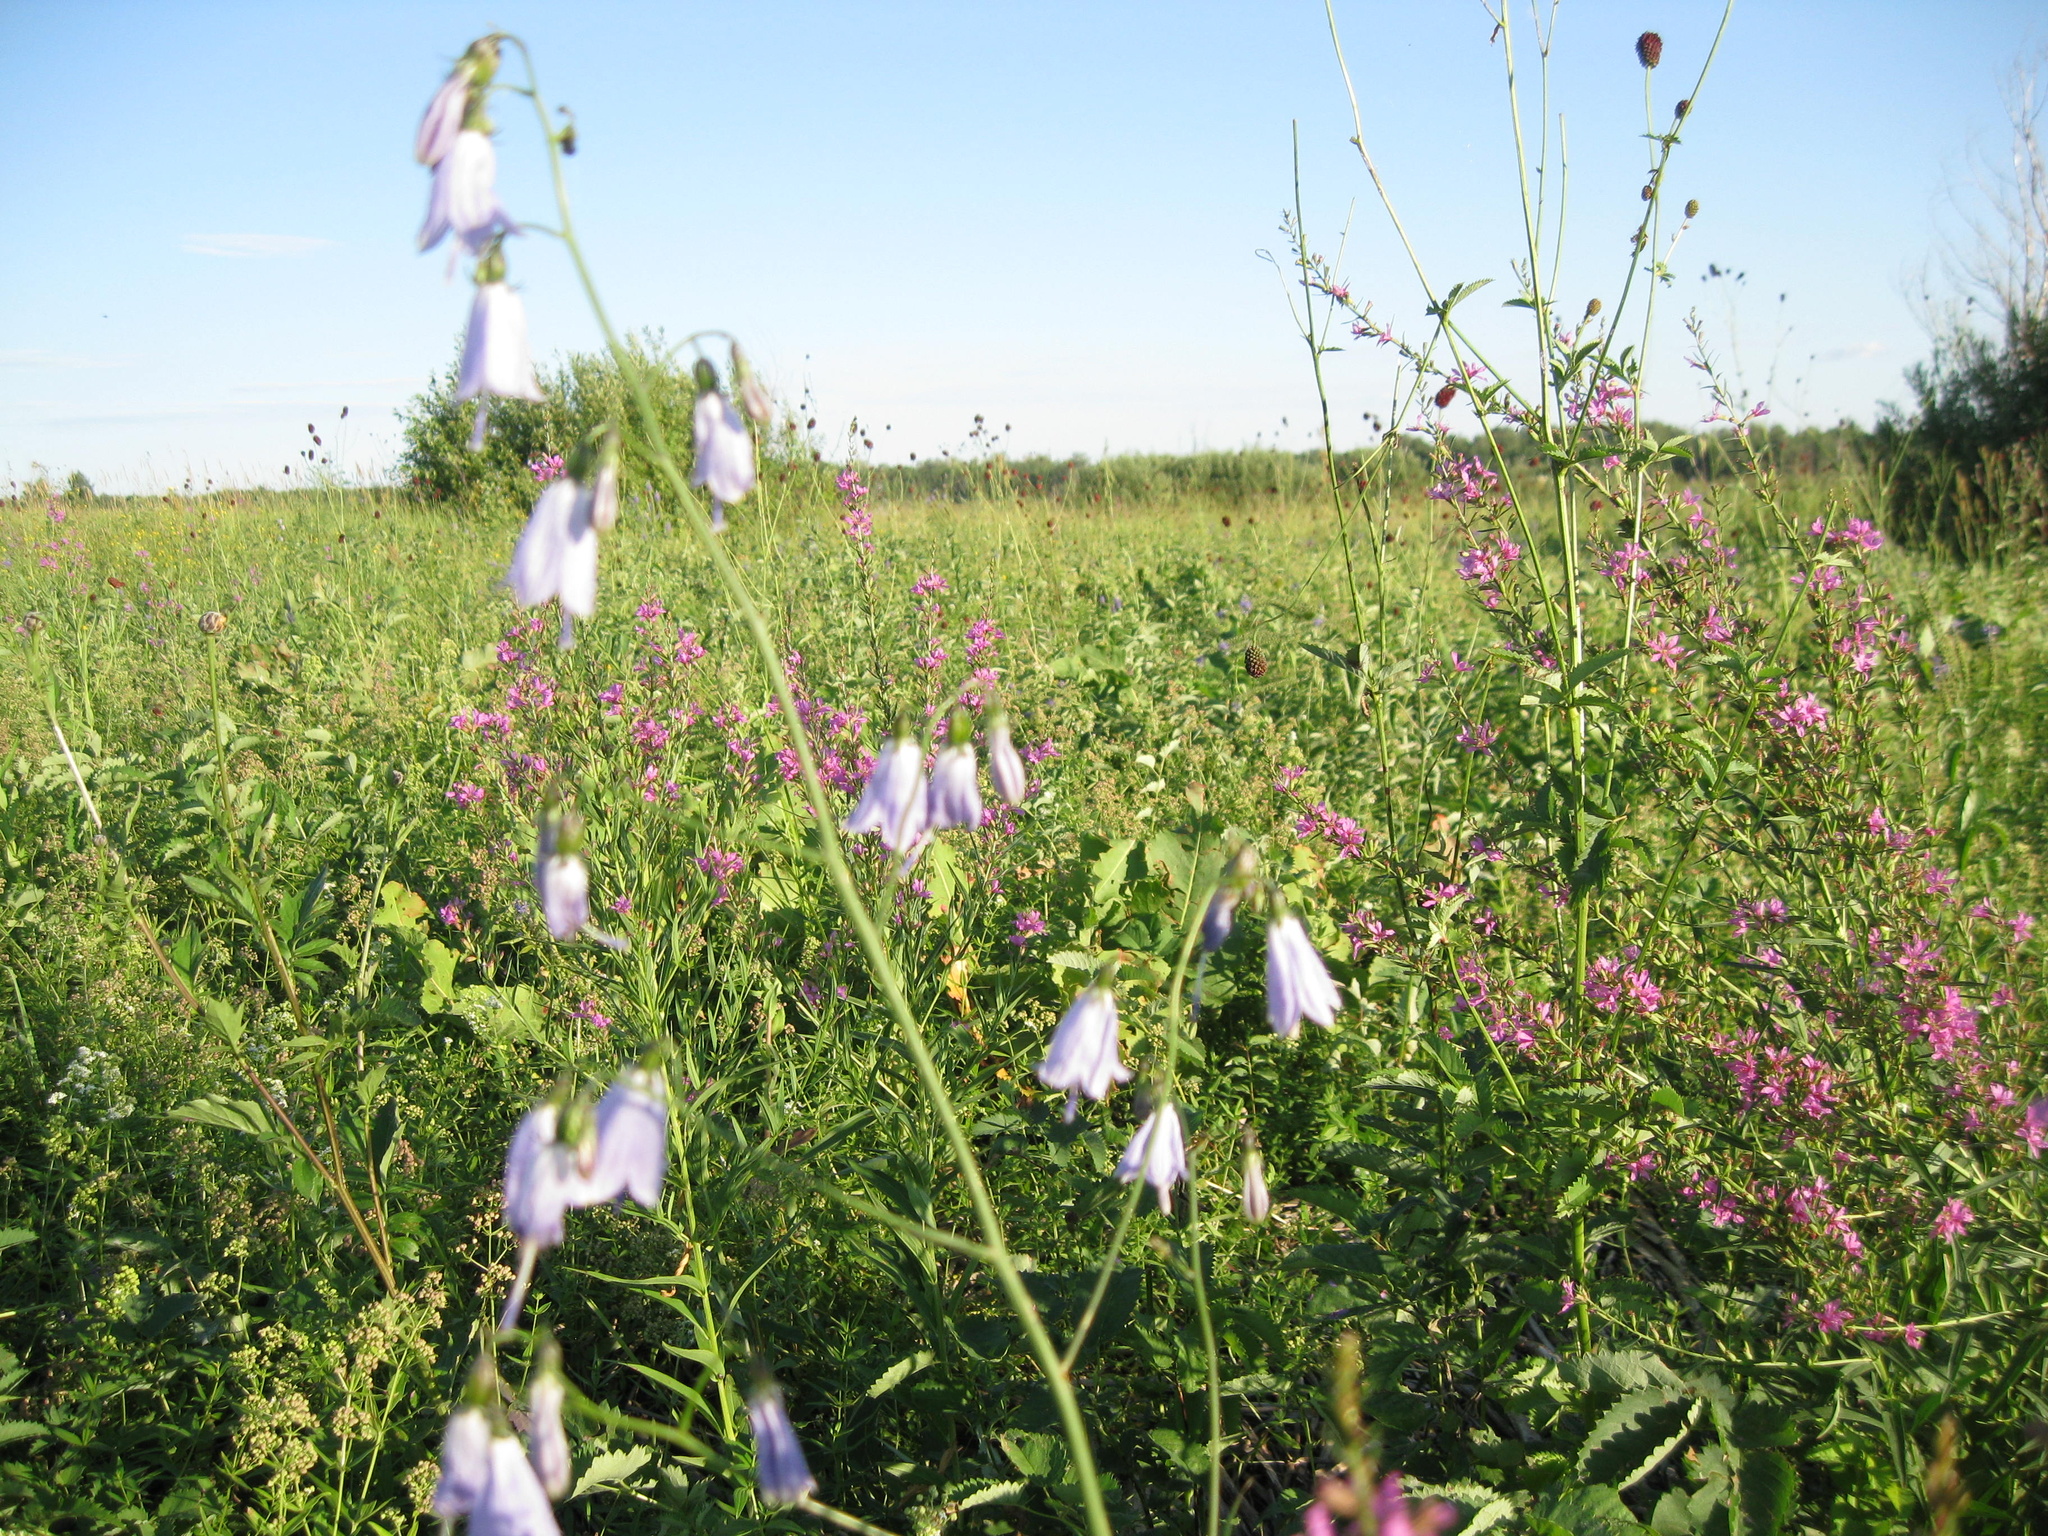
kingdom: Plantae
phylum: Tracheophyta
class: Magnoliopsida
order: Asterales
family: Campanulaceae
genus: Adenophora
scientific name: Adenophora liliifolia
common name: Lilyleaf ladybells
